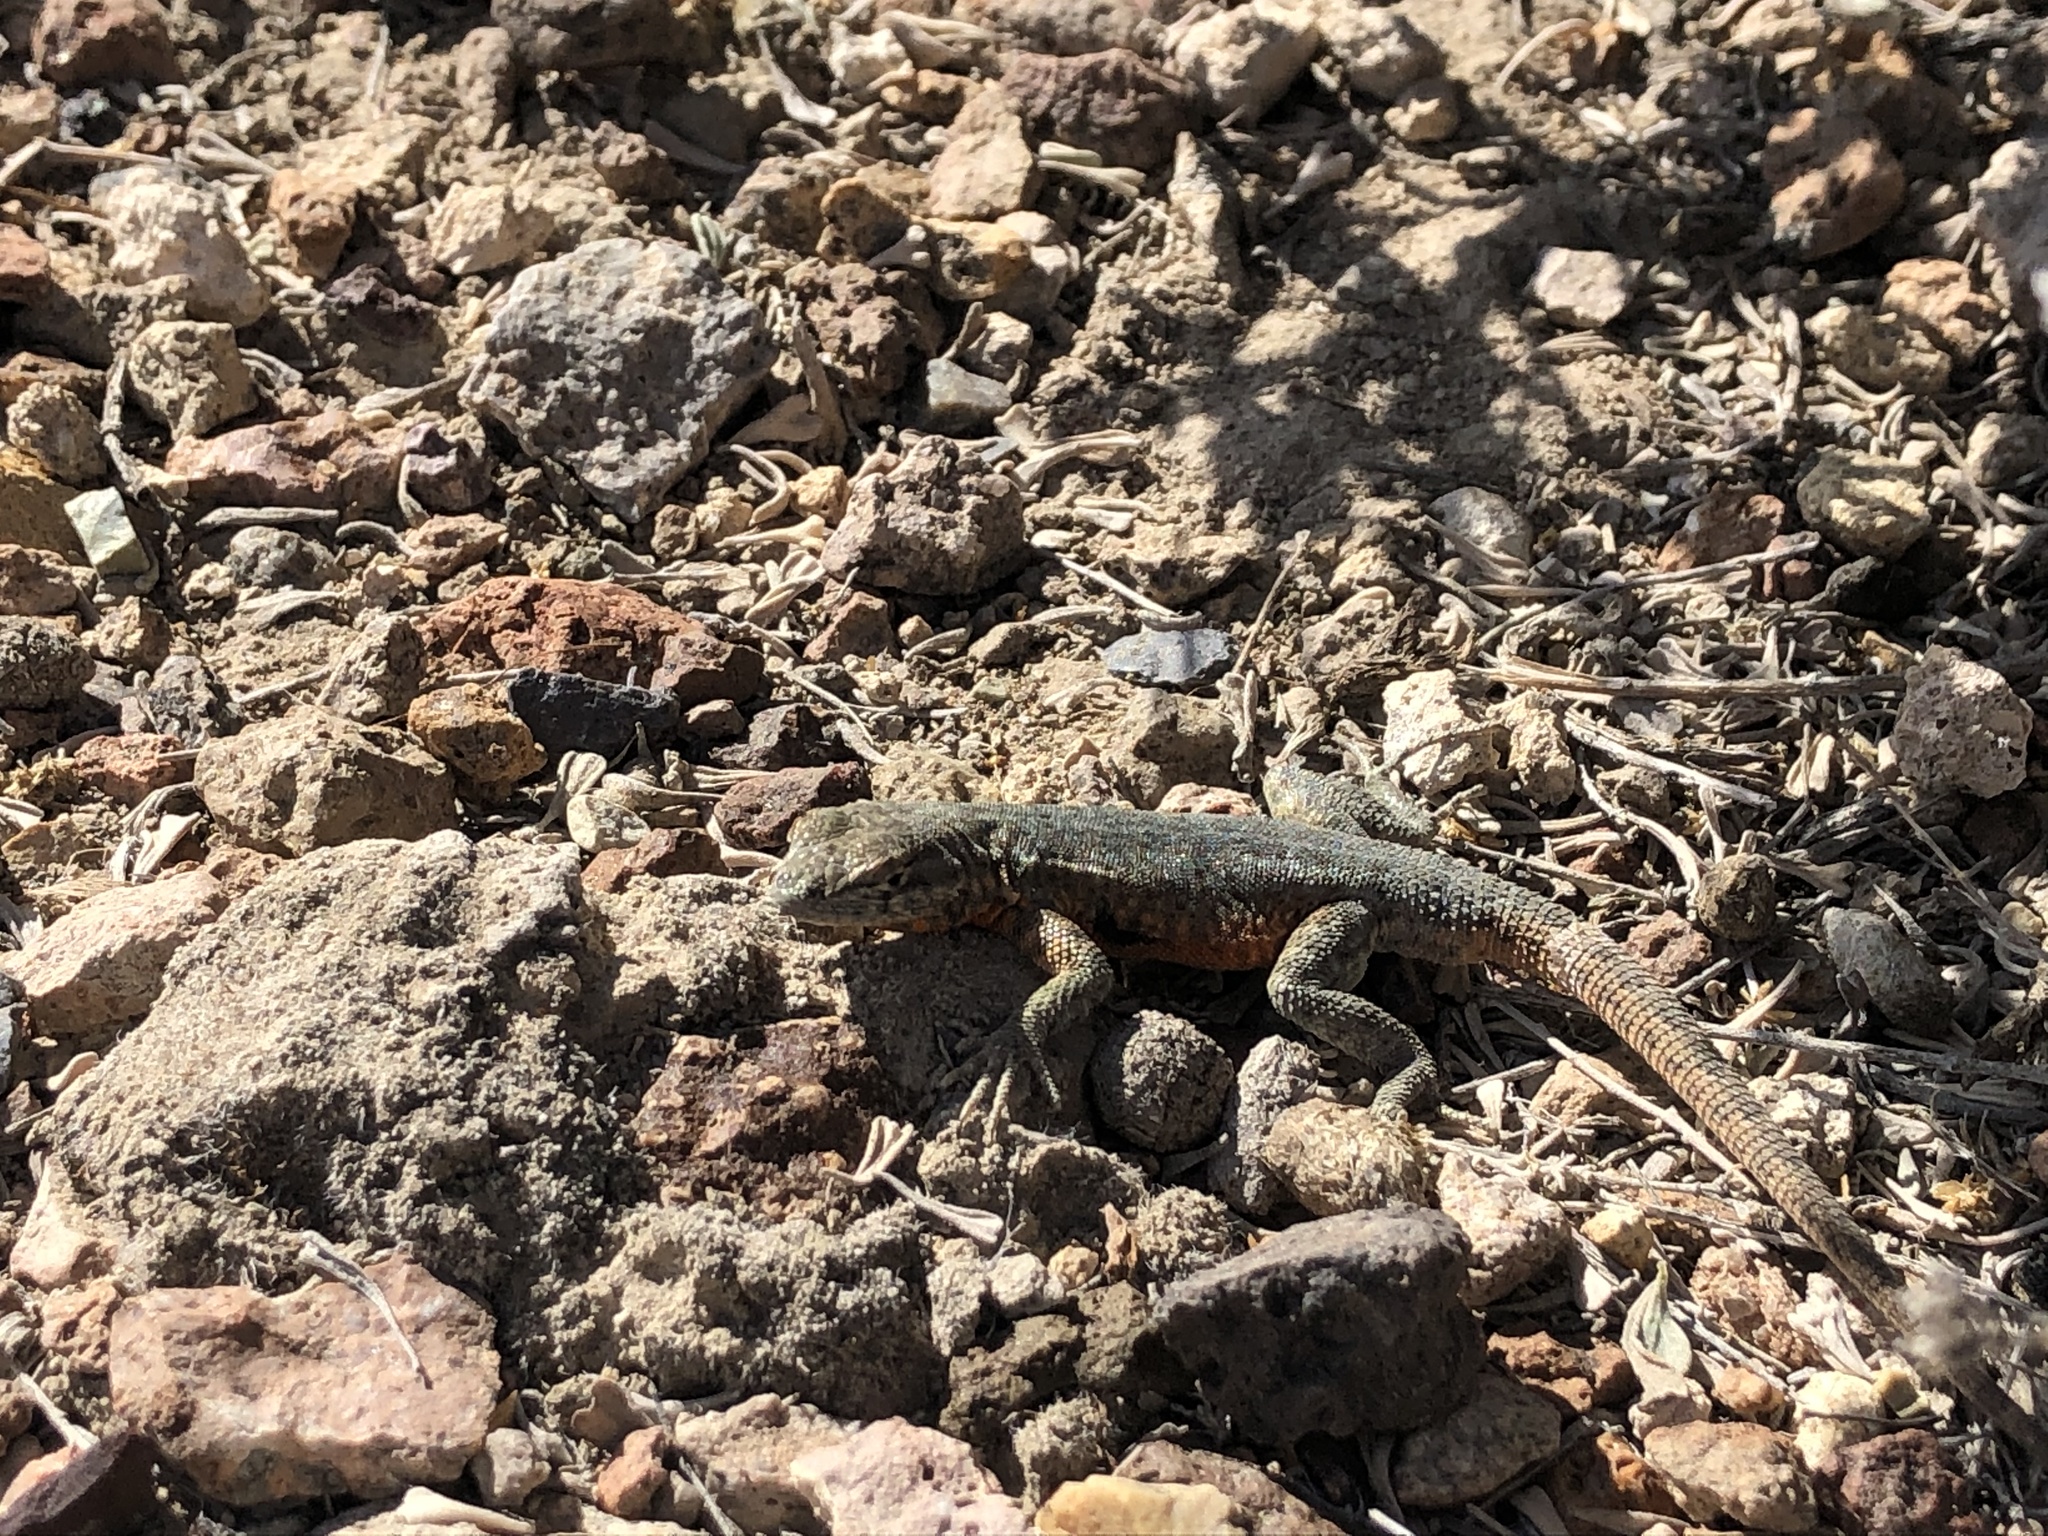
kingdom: Animalia
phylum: Chordata
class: Squamata
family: Phrynosomatidae
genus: Uta
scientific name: Uta stansburiana
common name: Side-blotched lizard
